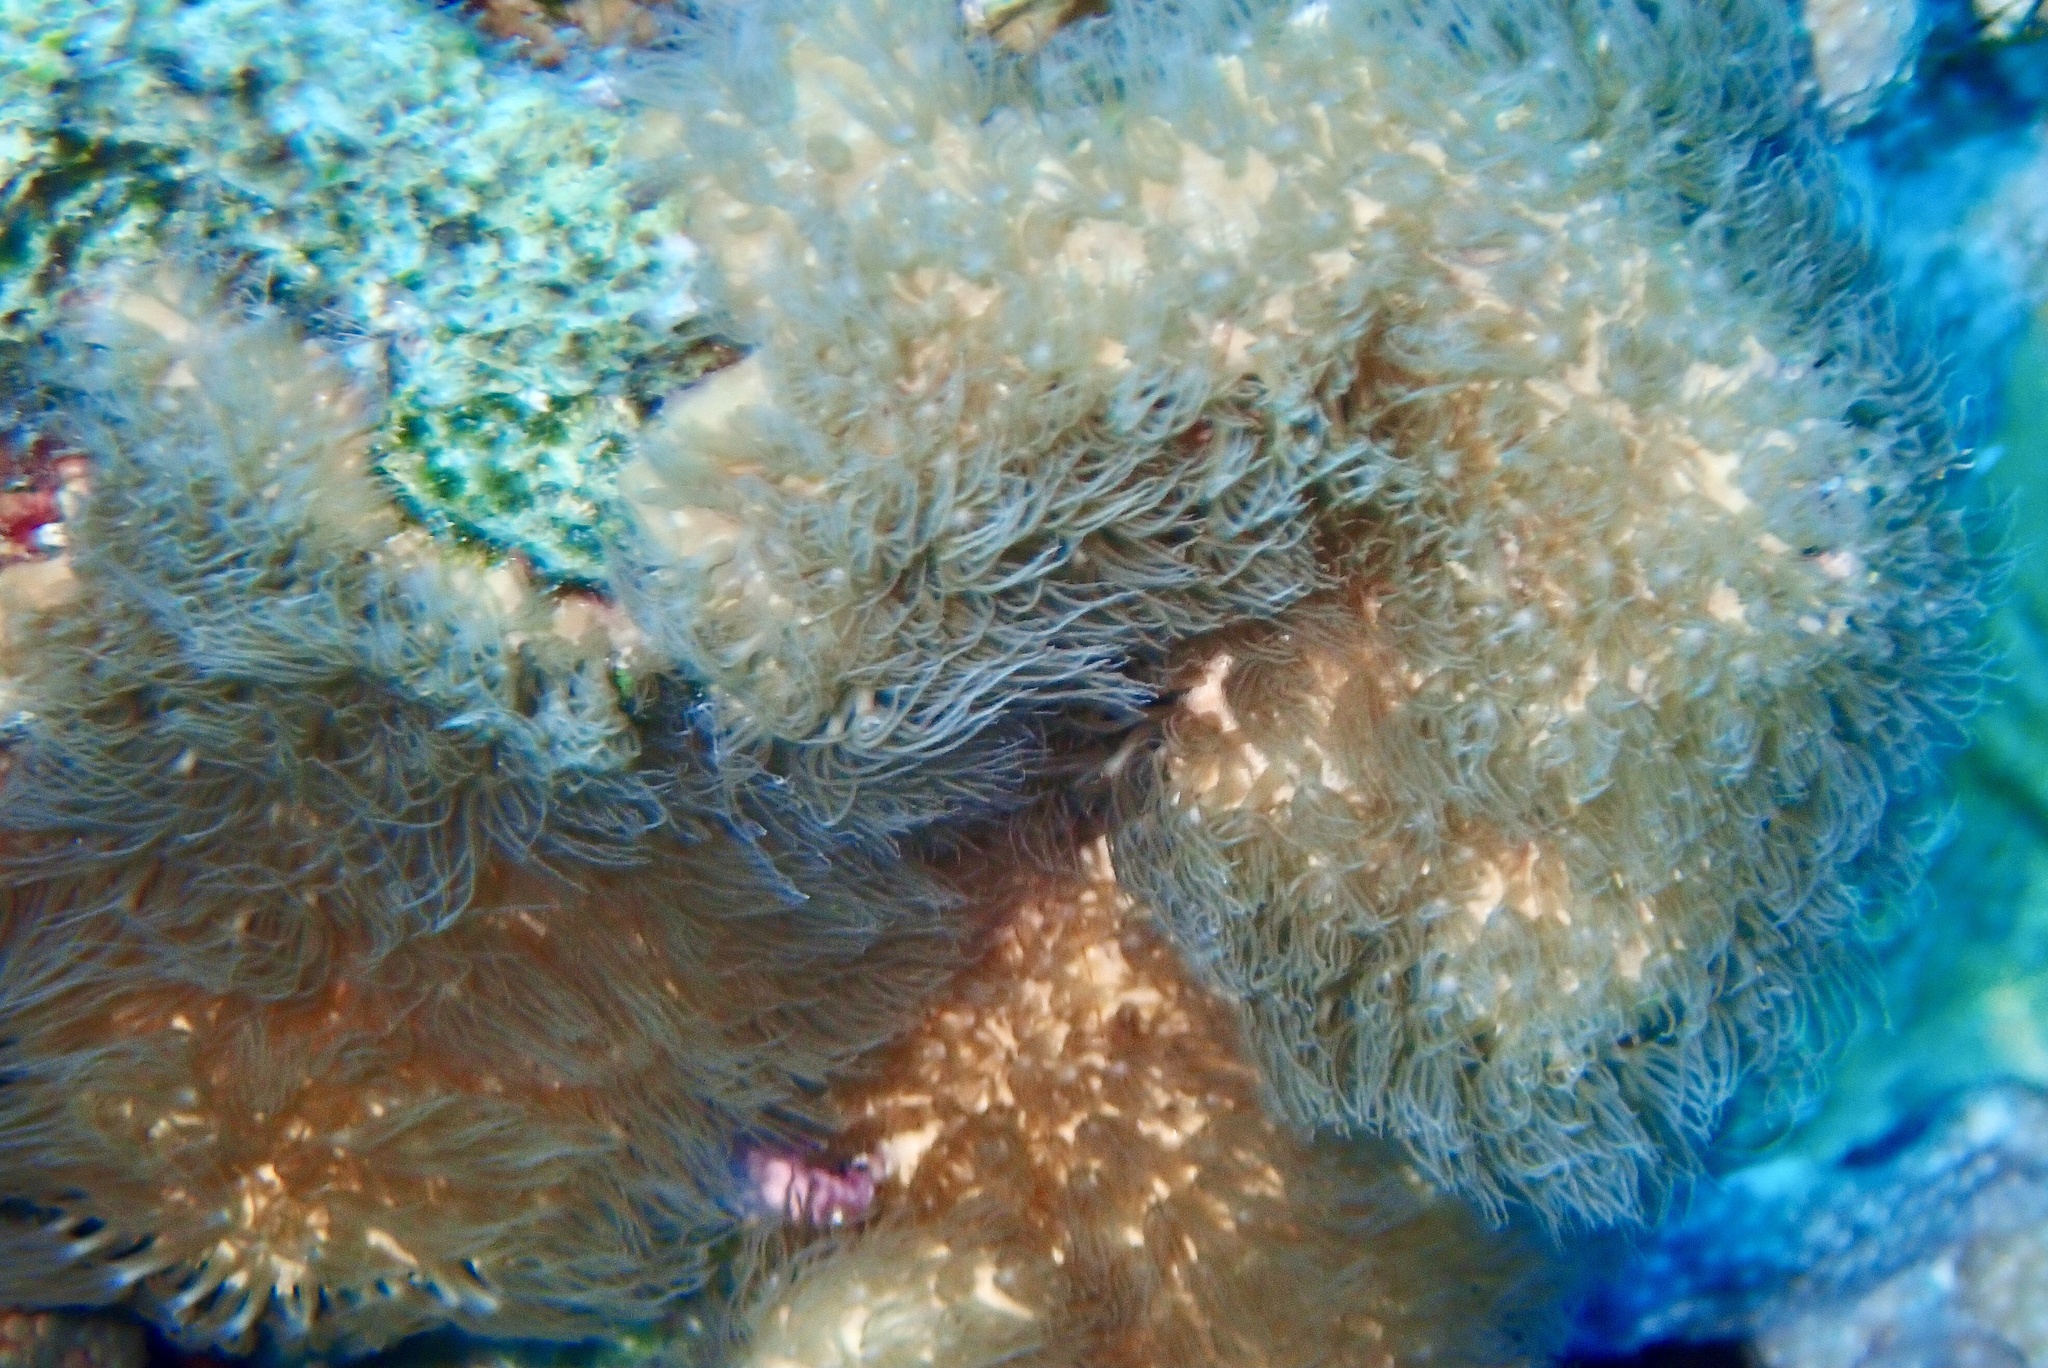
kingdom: Animalia
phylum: Cnidaria
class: Anthozoa
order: Scleralcyonacea
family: Erythropodiidae
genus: Erythropodium
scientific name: Erythropodium caribaeorum
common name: Encrusting gorgonian
